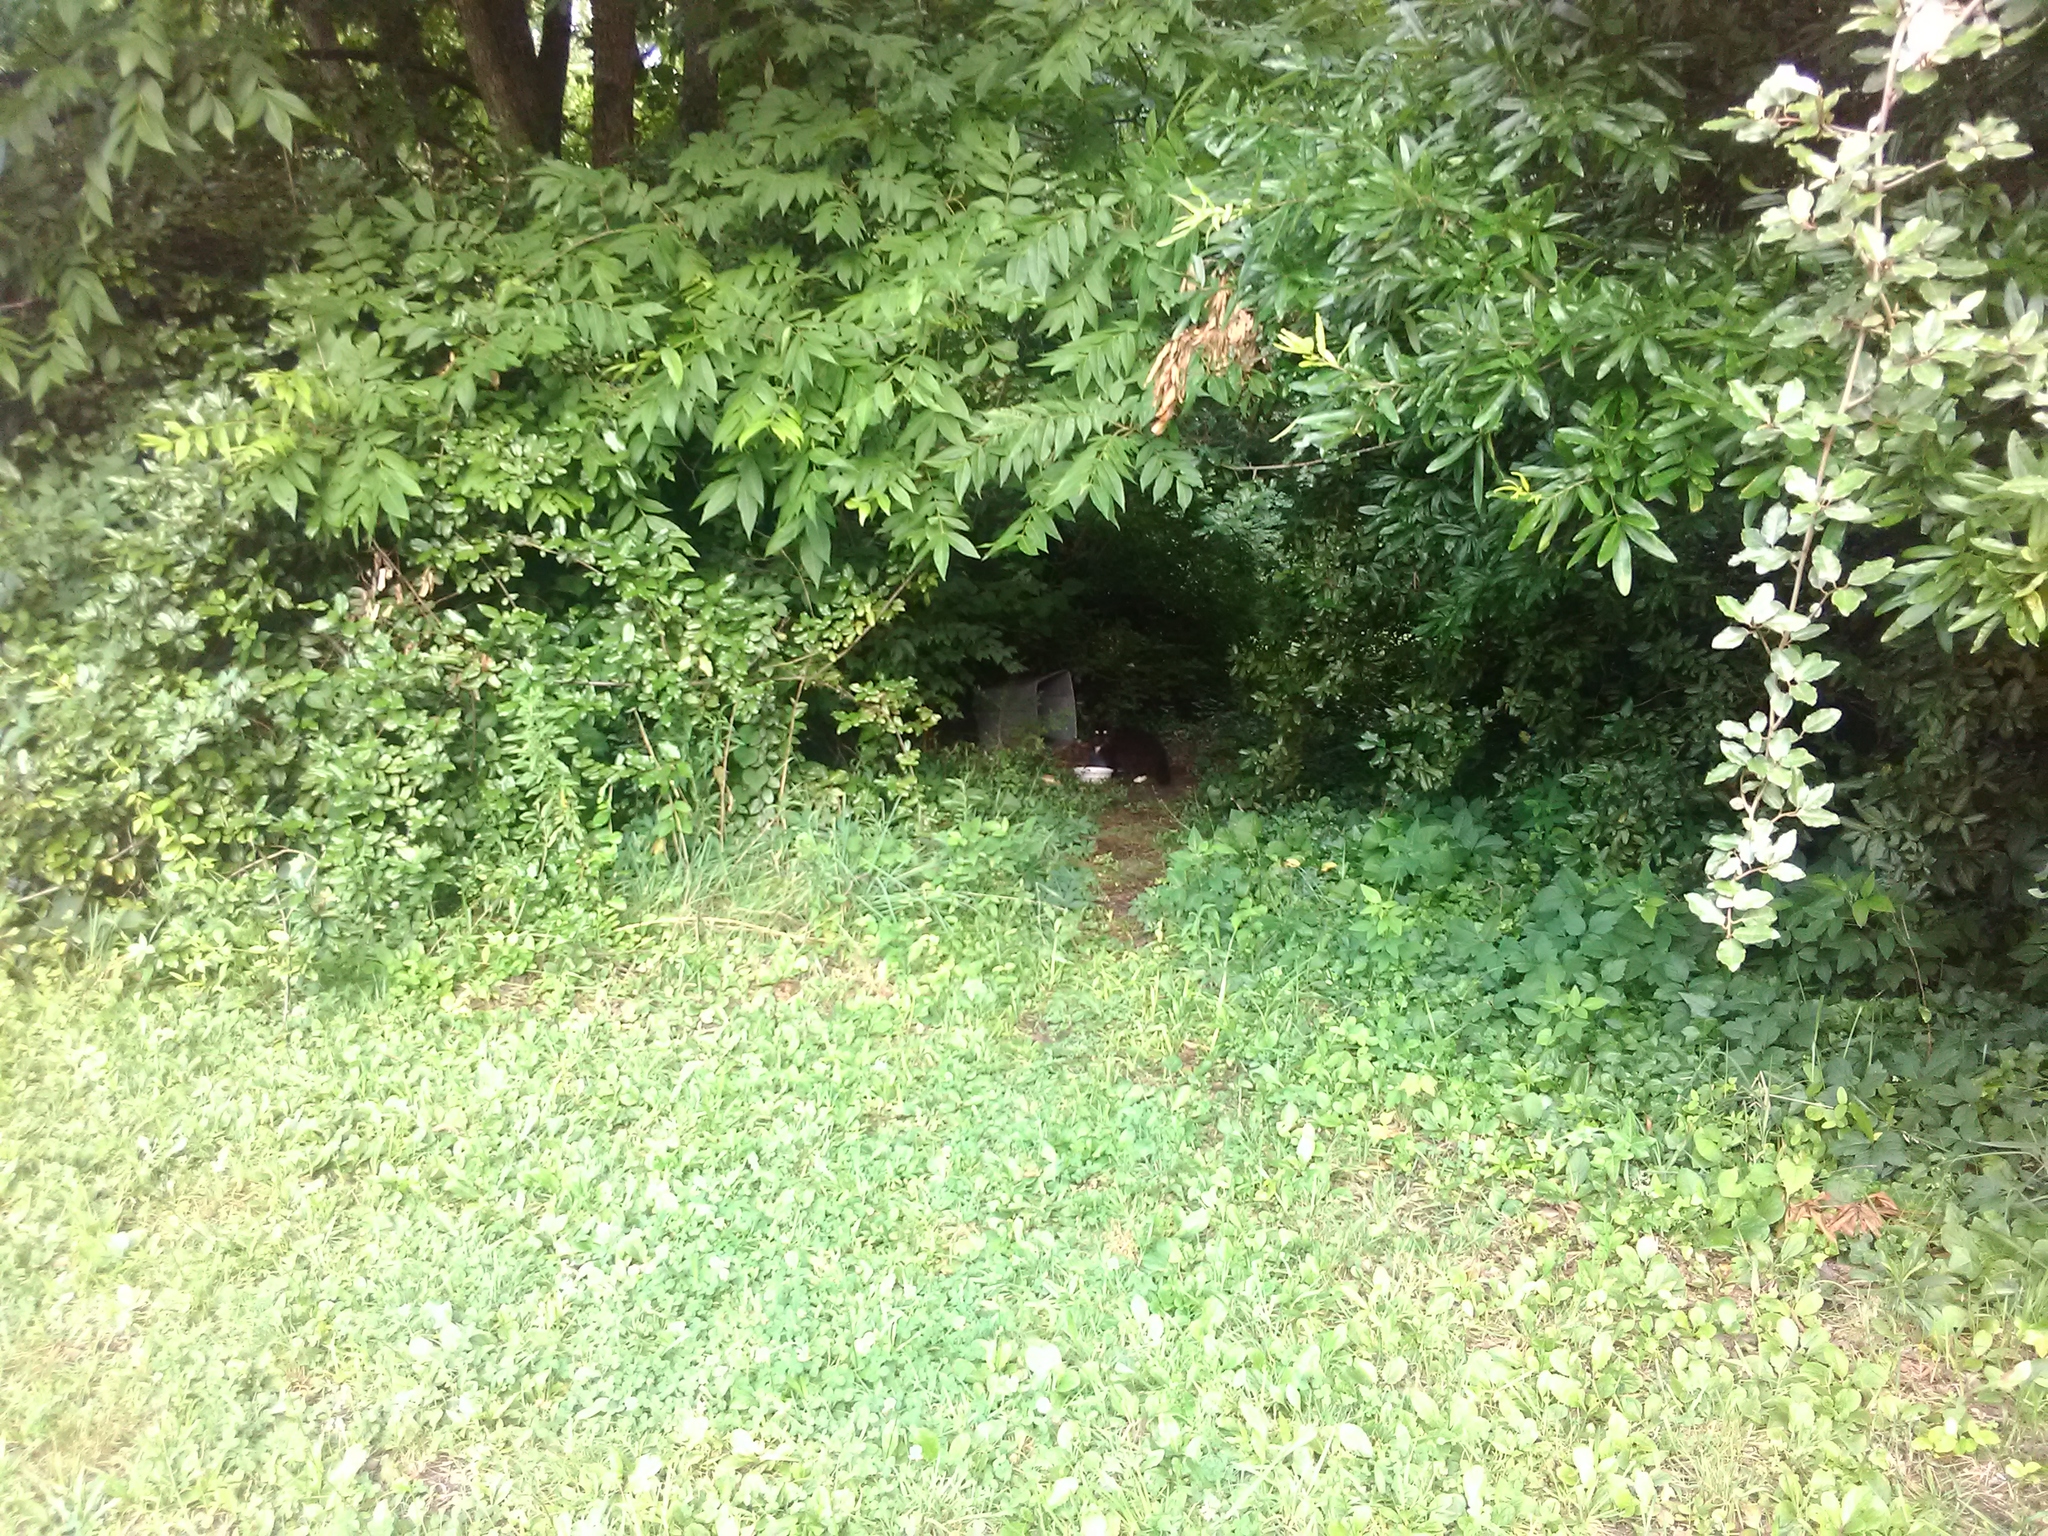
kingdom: Animalia
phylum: Chordata
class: Mammalia
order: Carnivora
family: Felidae
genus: Felis
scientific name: Felis catus
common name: Domestic cat
